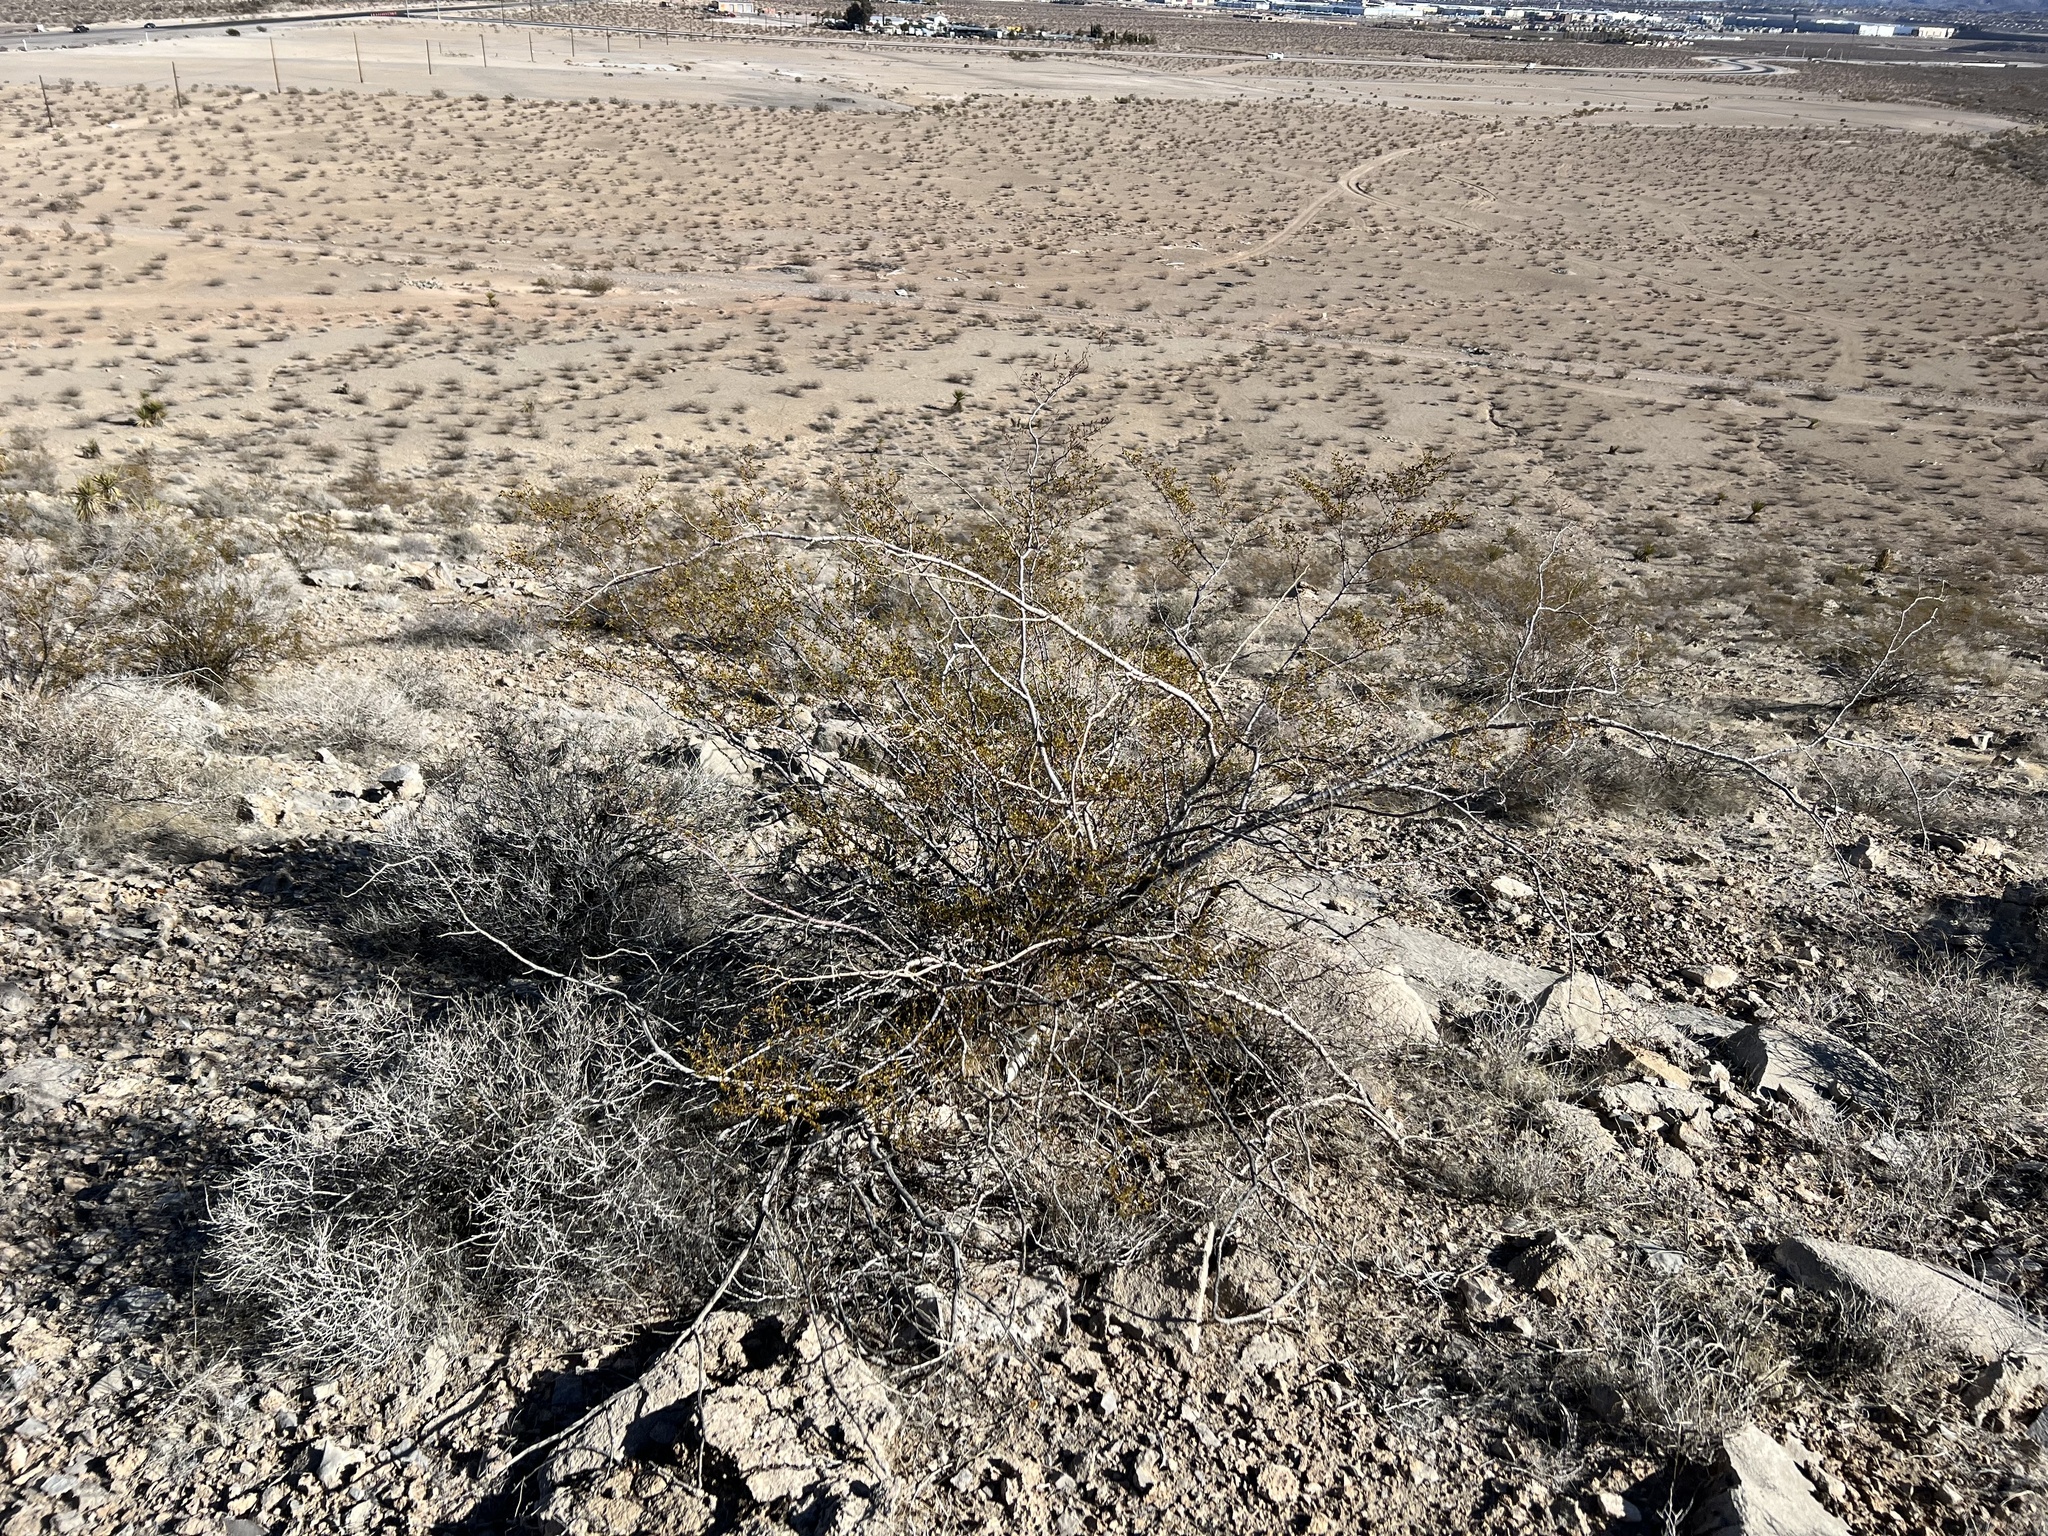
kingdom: Plantae
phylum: Tracheophyta
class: Magnoliopsida
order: Zygophyllales
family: Zygophyllaceae
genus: Larrea
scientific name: Larrea tridentata
